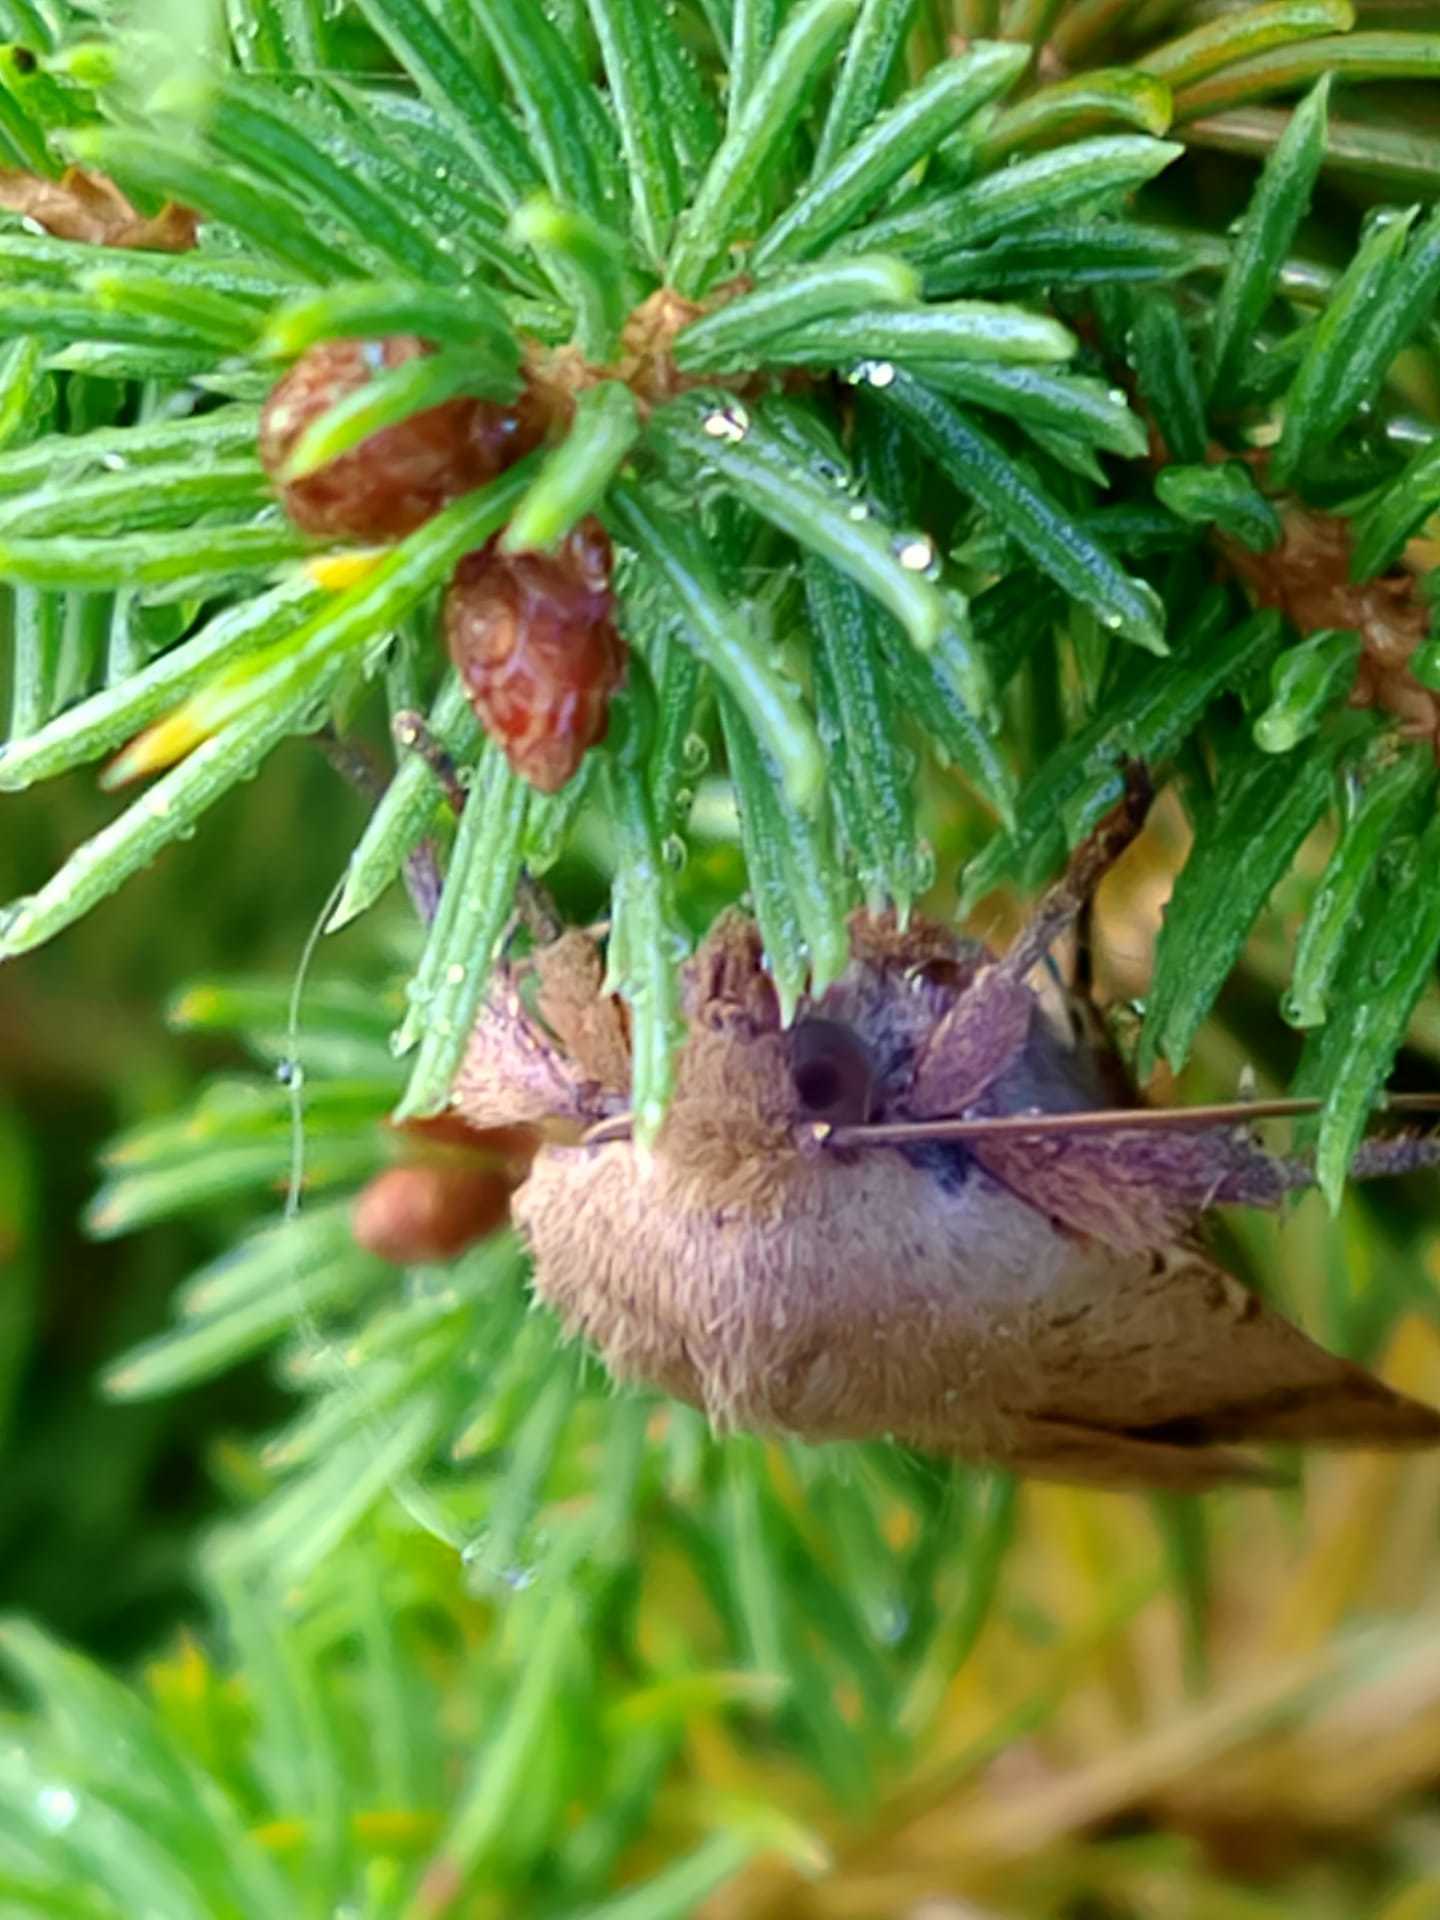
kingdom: Animalia
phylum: Arthropoda
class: Insecta
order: Lepidoptera
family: Noctuidae
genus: Noctua
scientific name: Noctua comes
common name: Lesser yellow underwing
